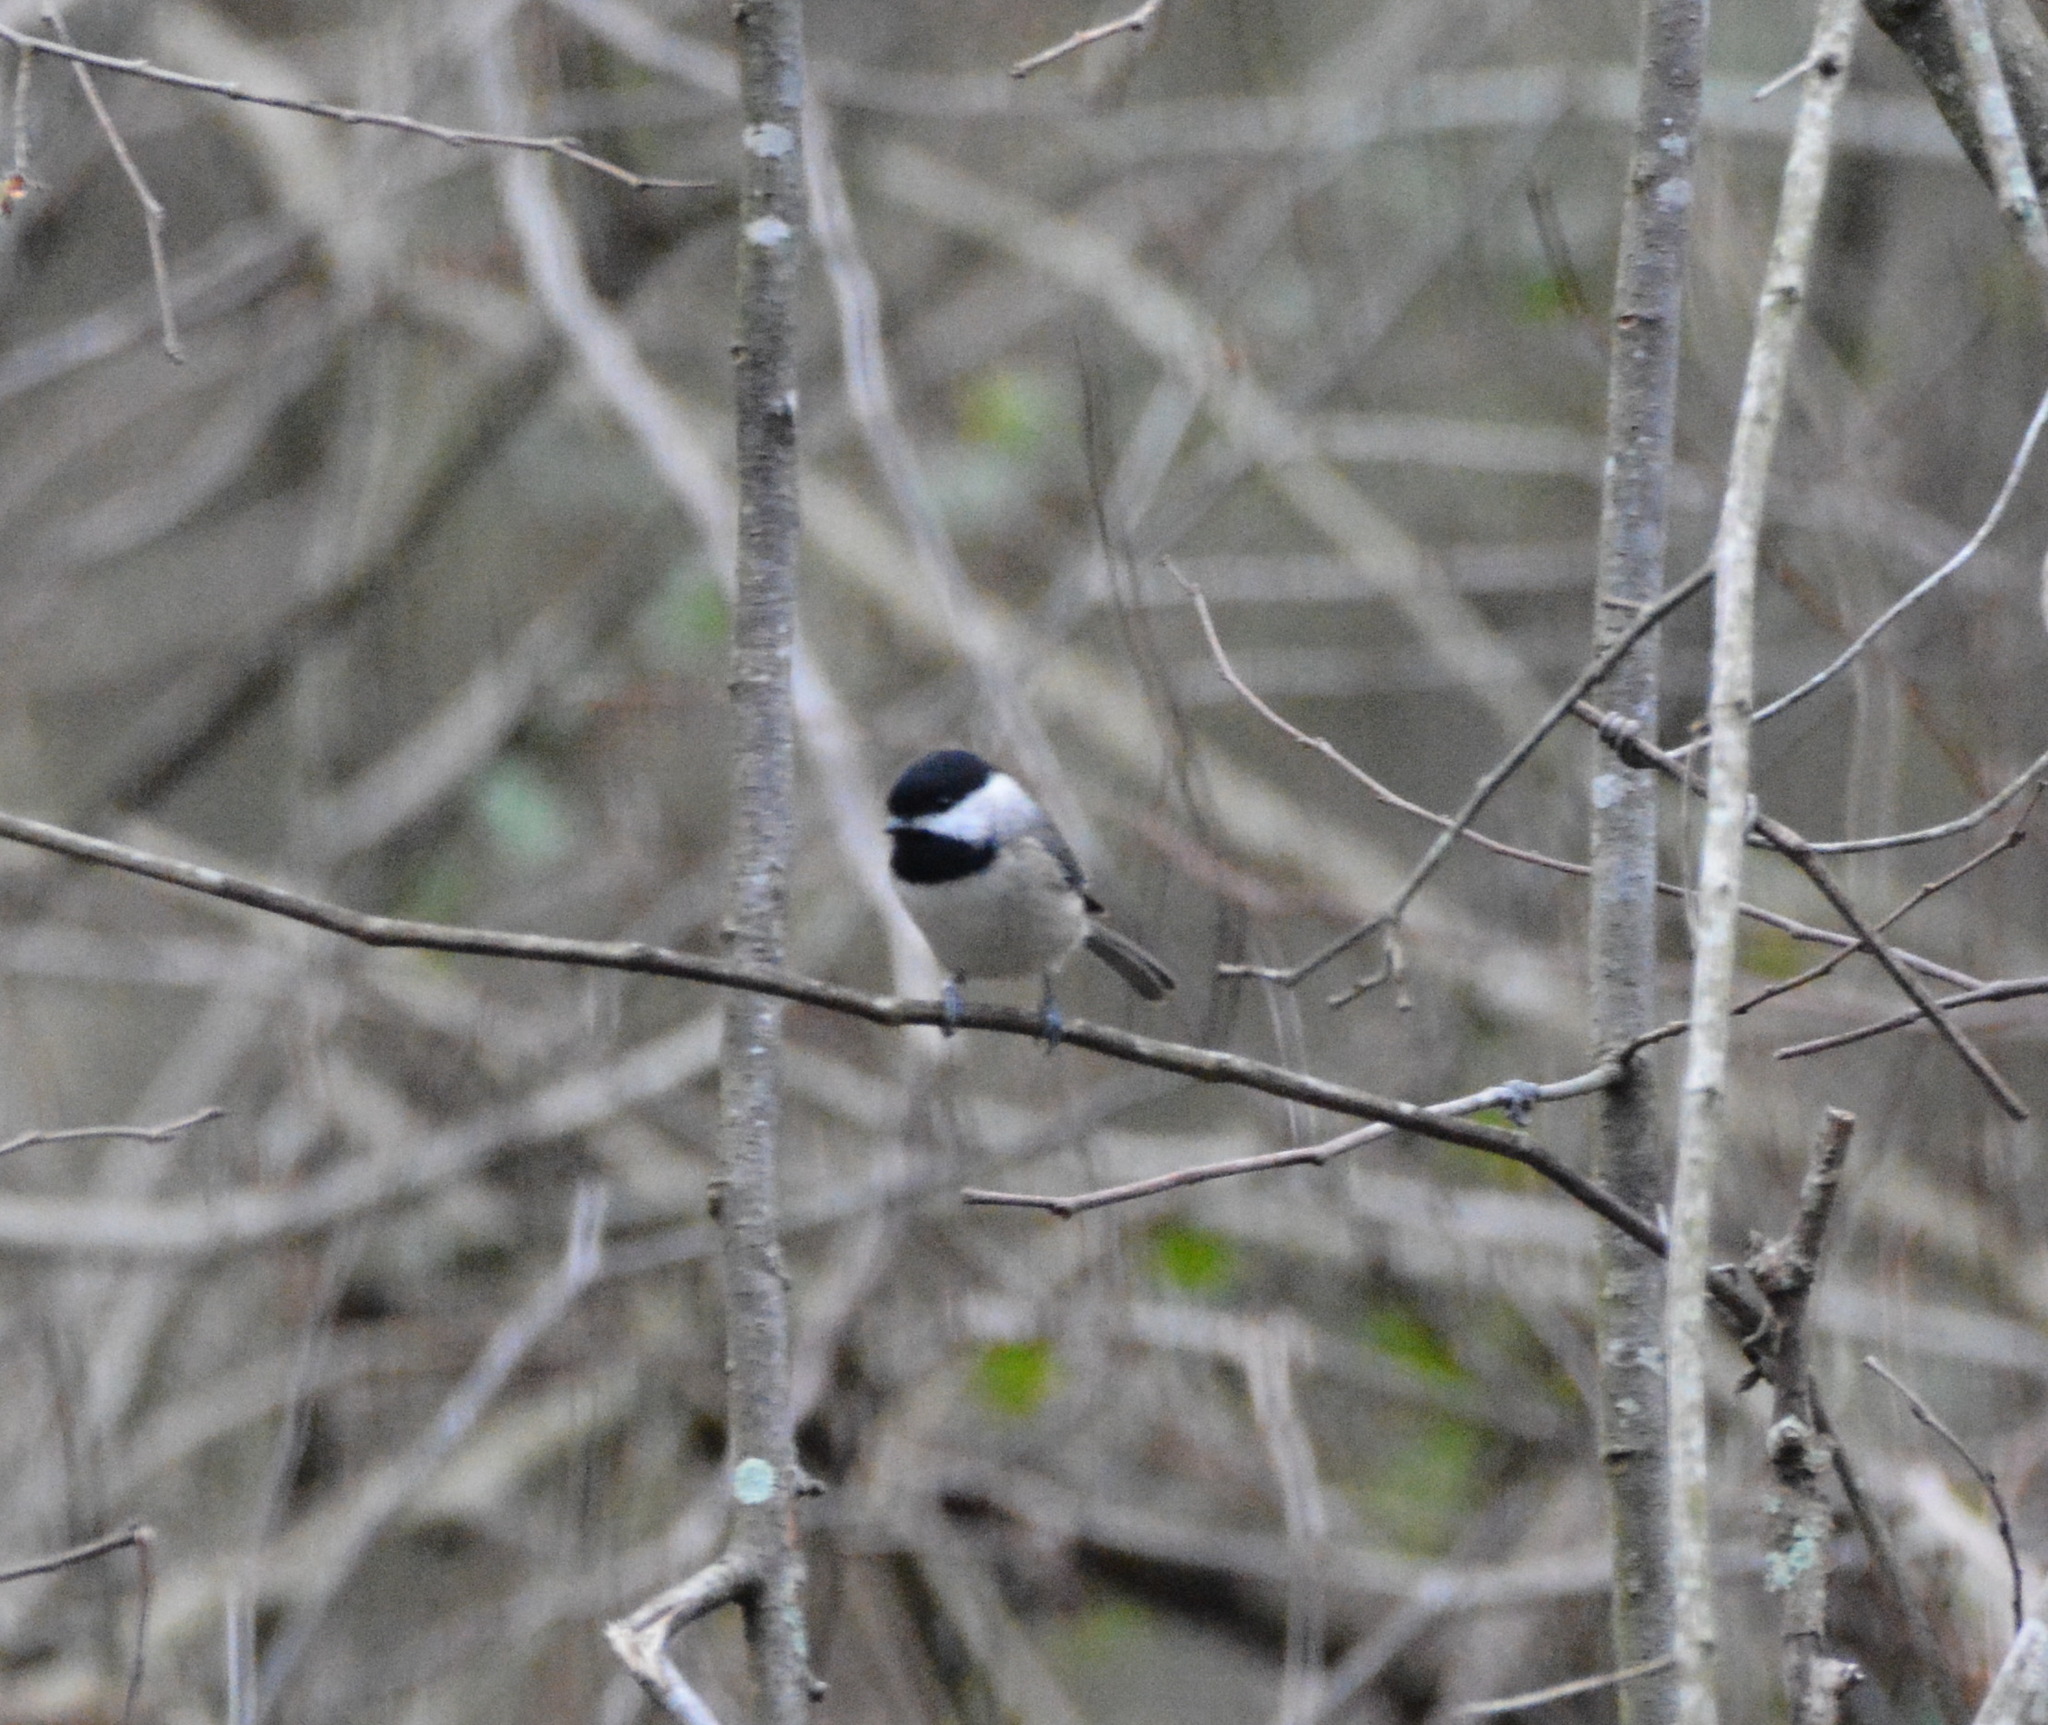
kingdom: Animalia
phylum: Chordata
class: Aves
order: Passeriformes
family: Paridae
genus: Poecile
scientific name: Poecile carolinensis
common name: Carolina chickadee
